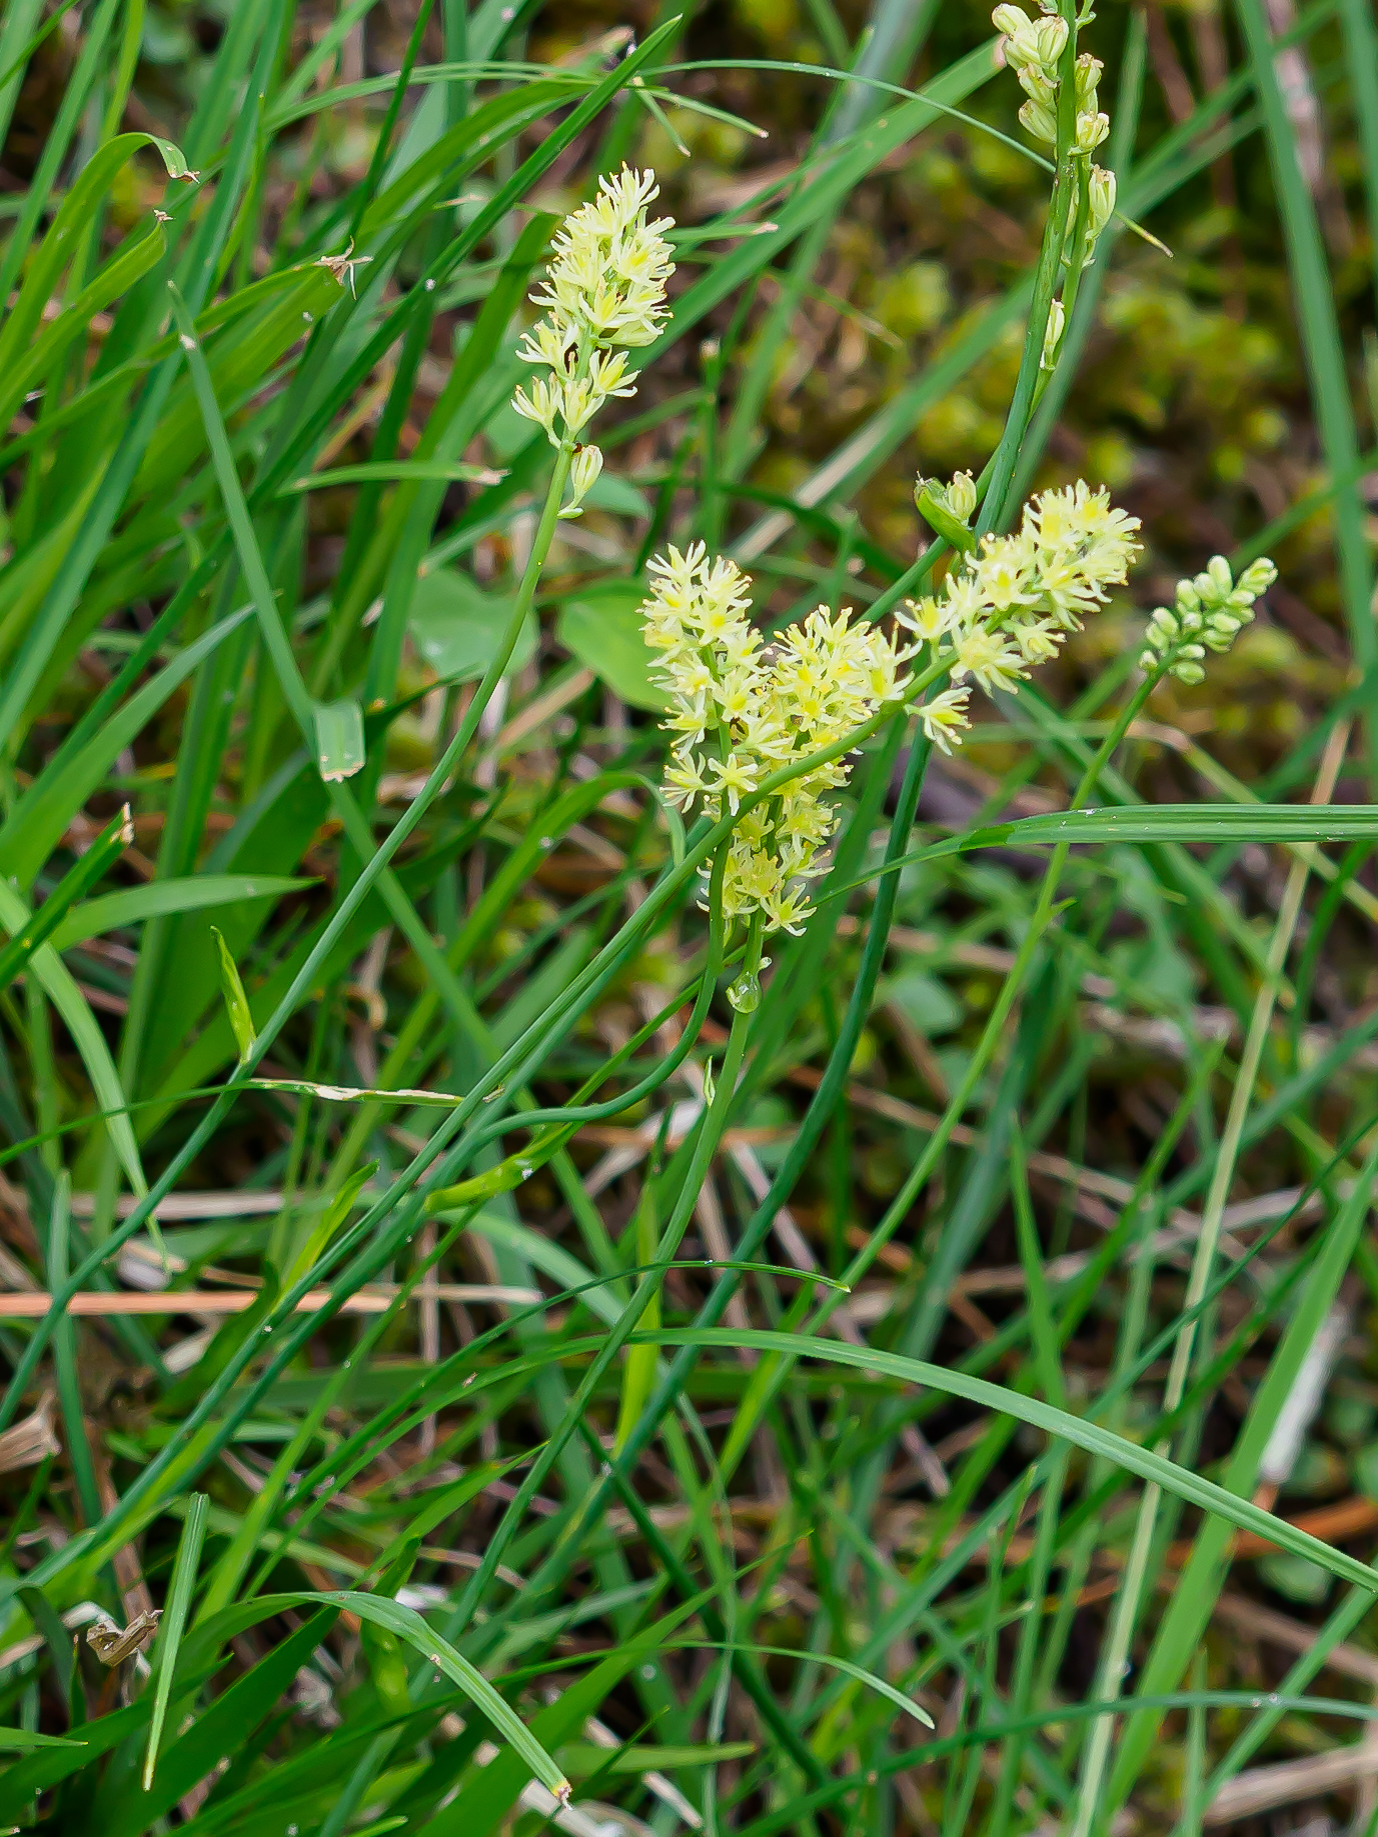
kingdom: Plantae
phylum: Tracheophyta
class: Liliopsida
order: Alismatales
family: Tofieldiaceae
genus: Tofieldia
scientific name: Tofieldia calyculata
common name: German-asphodel
